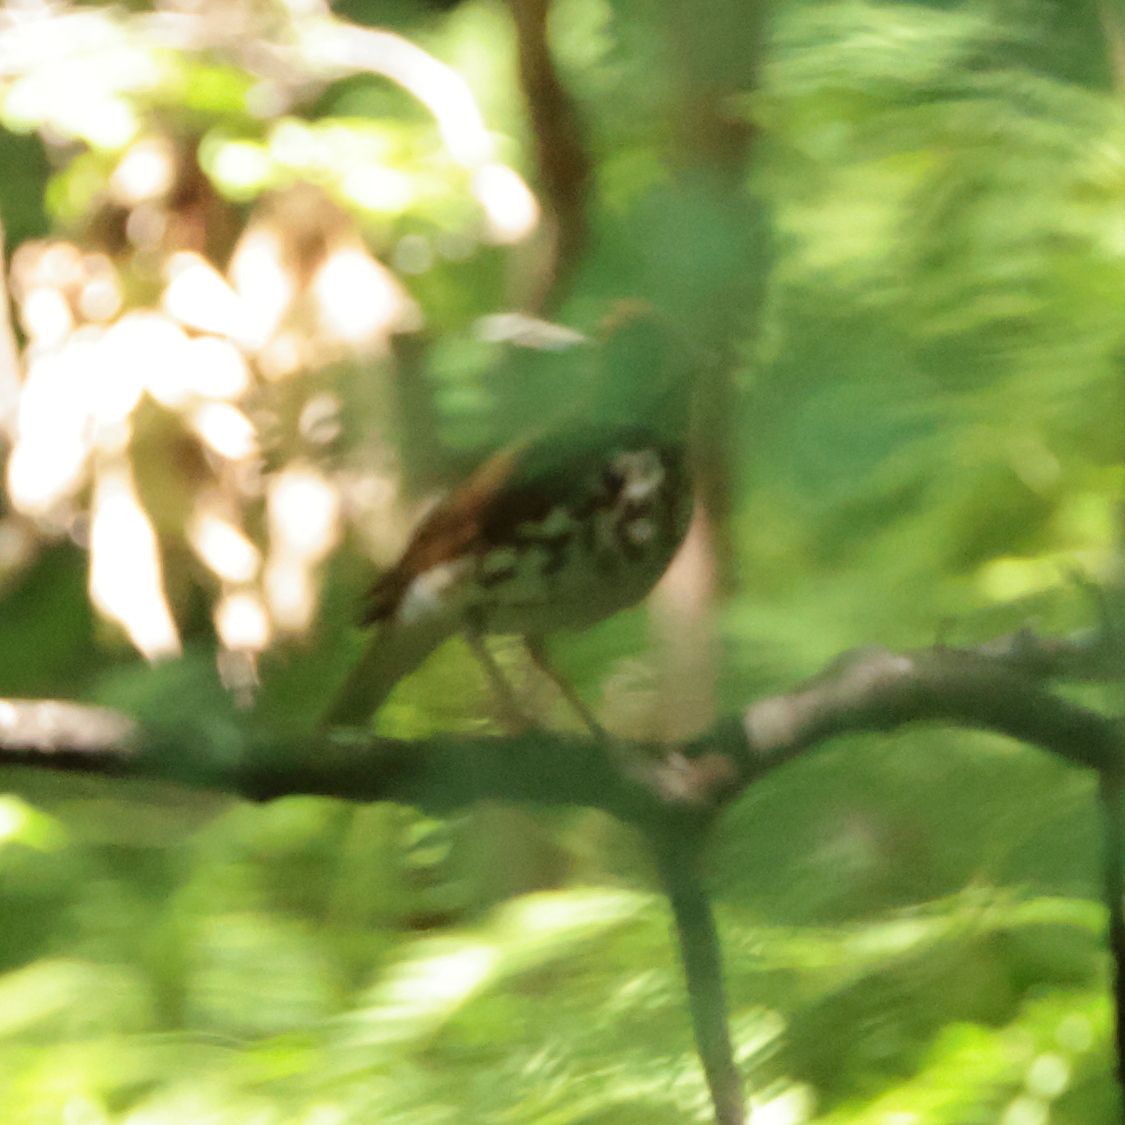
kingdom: Animalia
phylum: Chordata
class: Aves
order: Passeriformes
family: Turdidae
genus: Hylocichla
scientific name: Hylocichla mustelina
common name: Wood thrush
